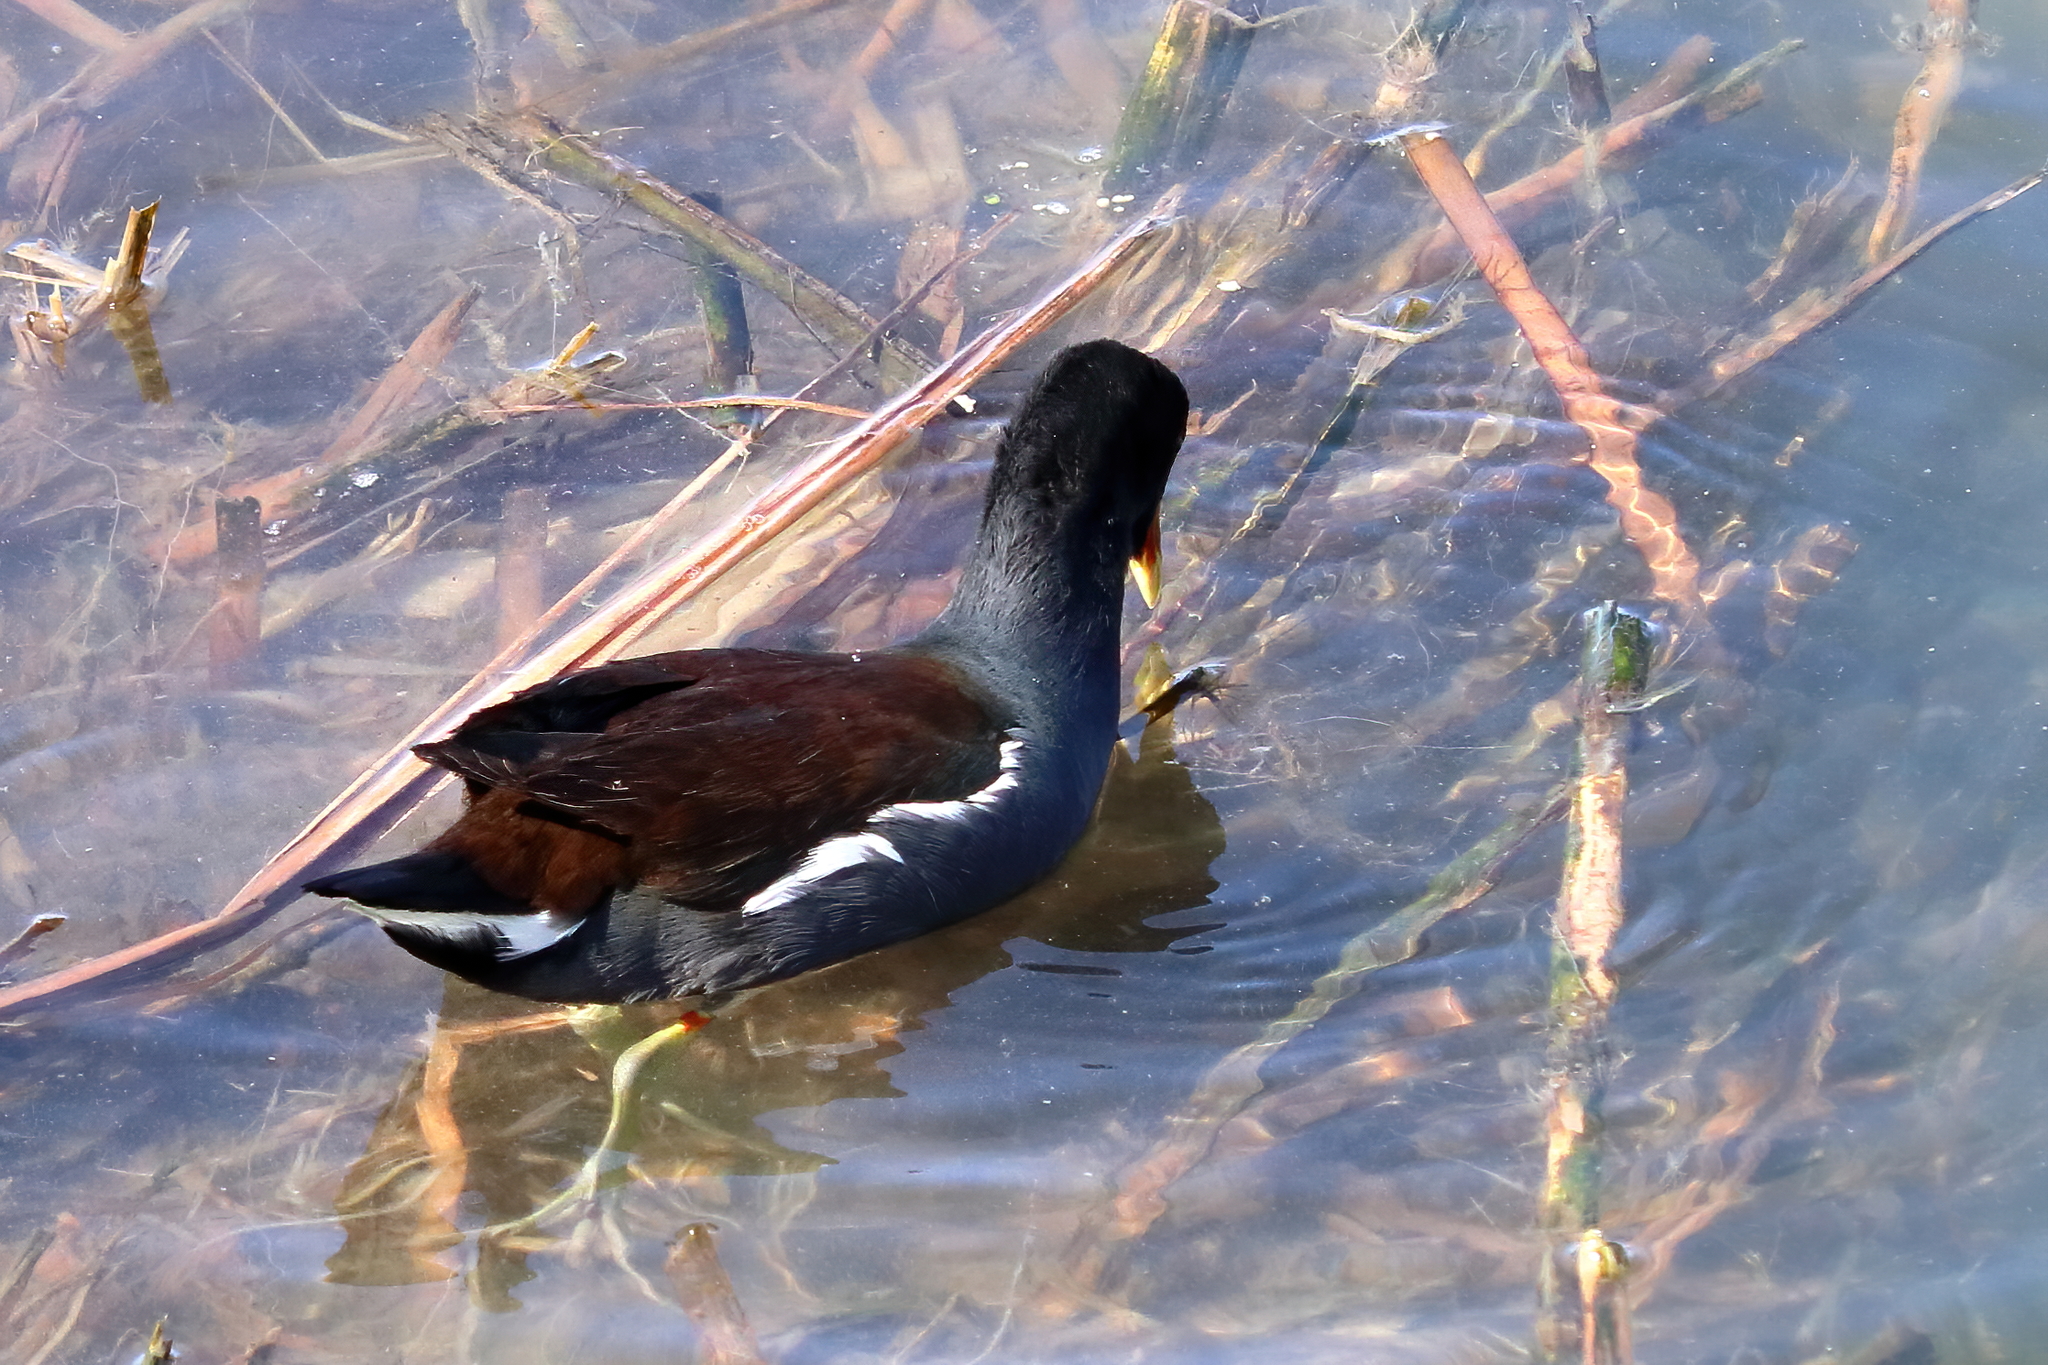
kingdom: Animalia
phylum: Chordata
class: Aves
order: Gruiformes
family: Rallidae
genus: Gallinula
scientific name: Gallinula chloropus
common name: Common moorhen
